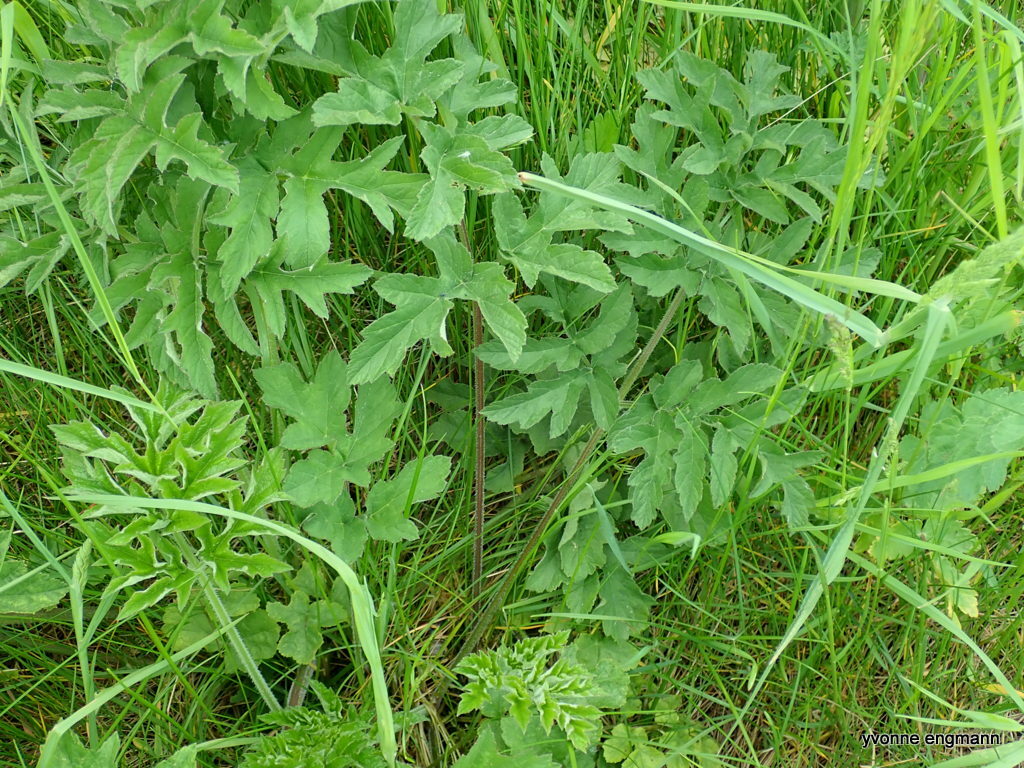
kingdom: Plantae
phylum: Tracheophyta
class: Magnoliopsida
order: Apiales
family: Apiaceae
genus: Heracleum
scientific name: Heracleum sphondylium
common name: Hogweed
